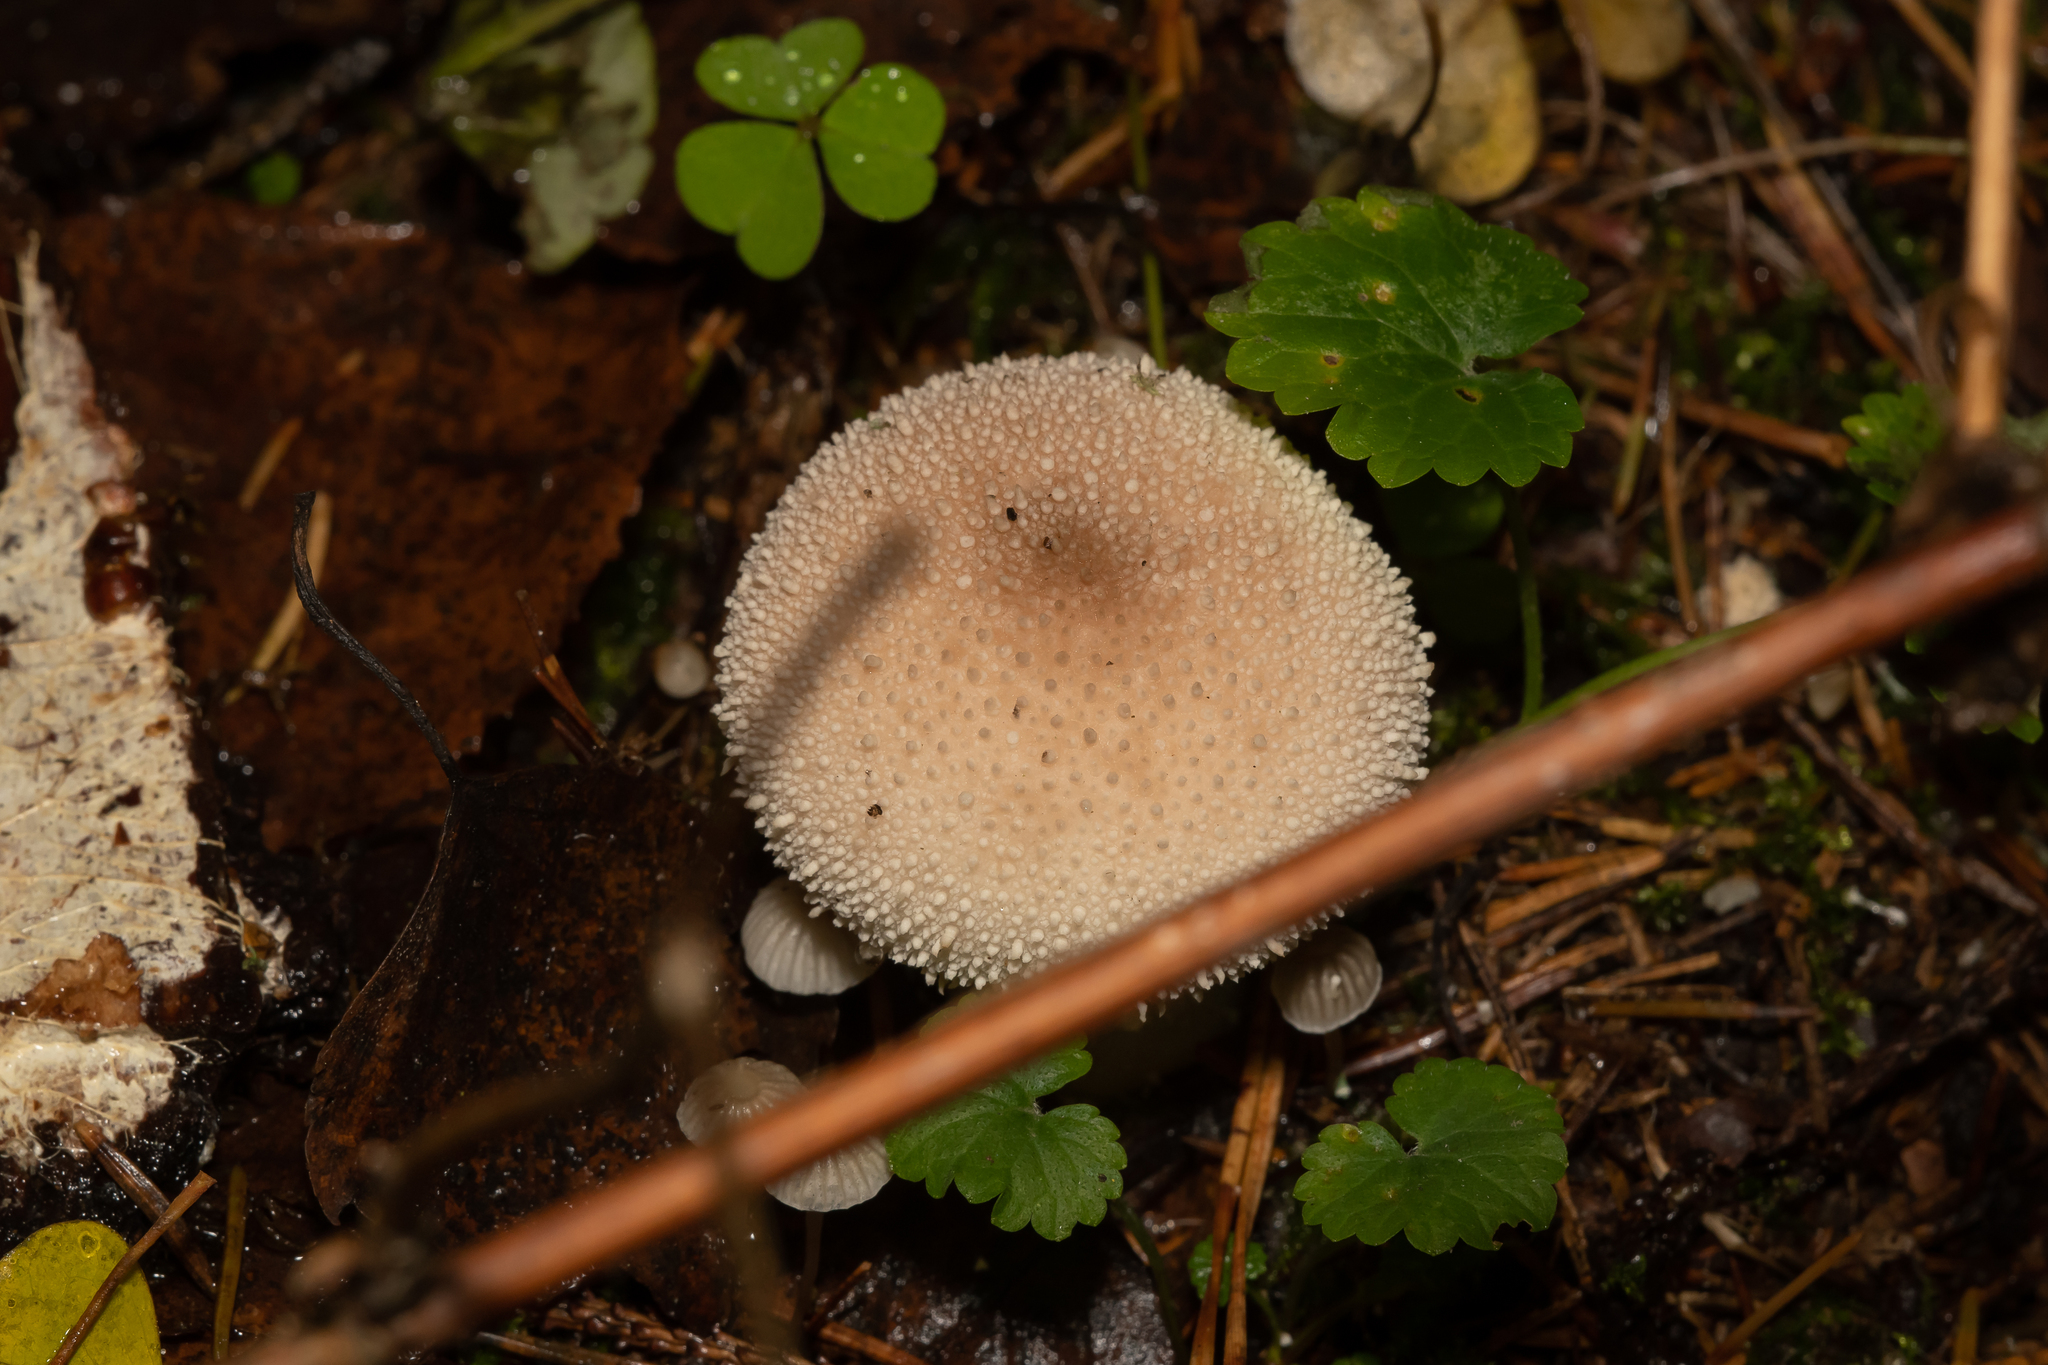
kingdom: Fungi
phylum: Basidiomycota
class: Agaricomycetes
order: Agaricales
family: Lycoperdaceae
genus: Lycoperdon
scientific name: Lycoperdon perlatum
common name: Common puffball
